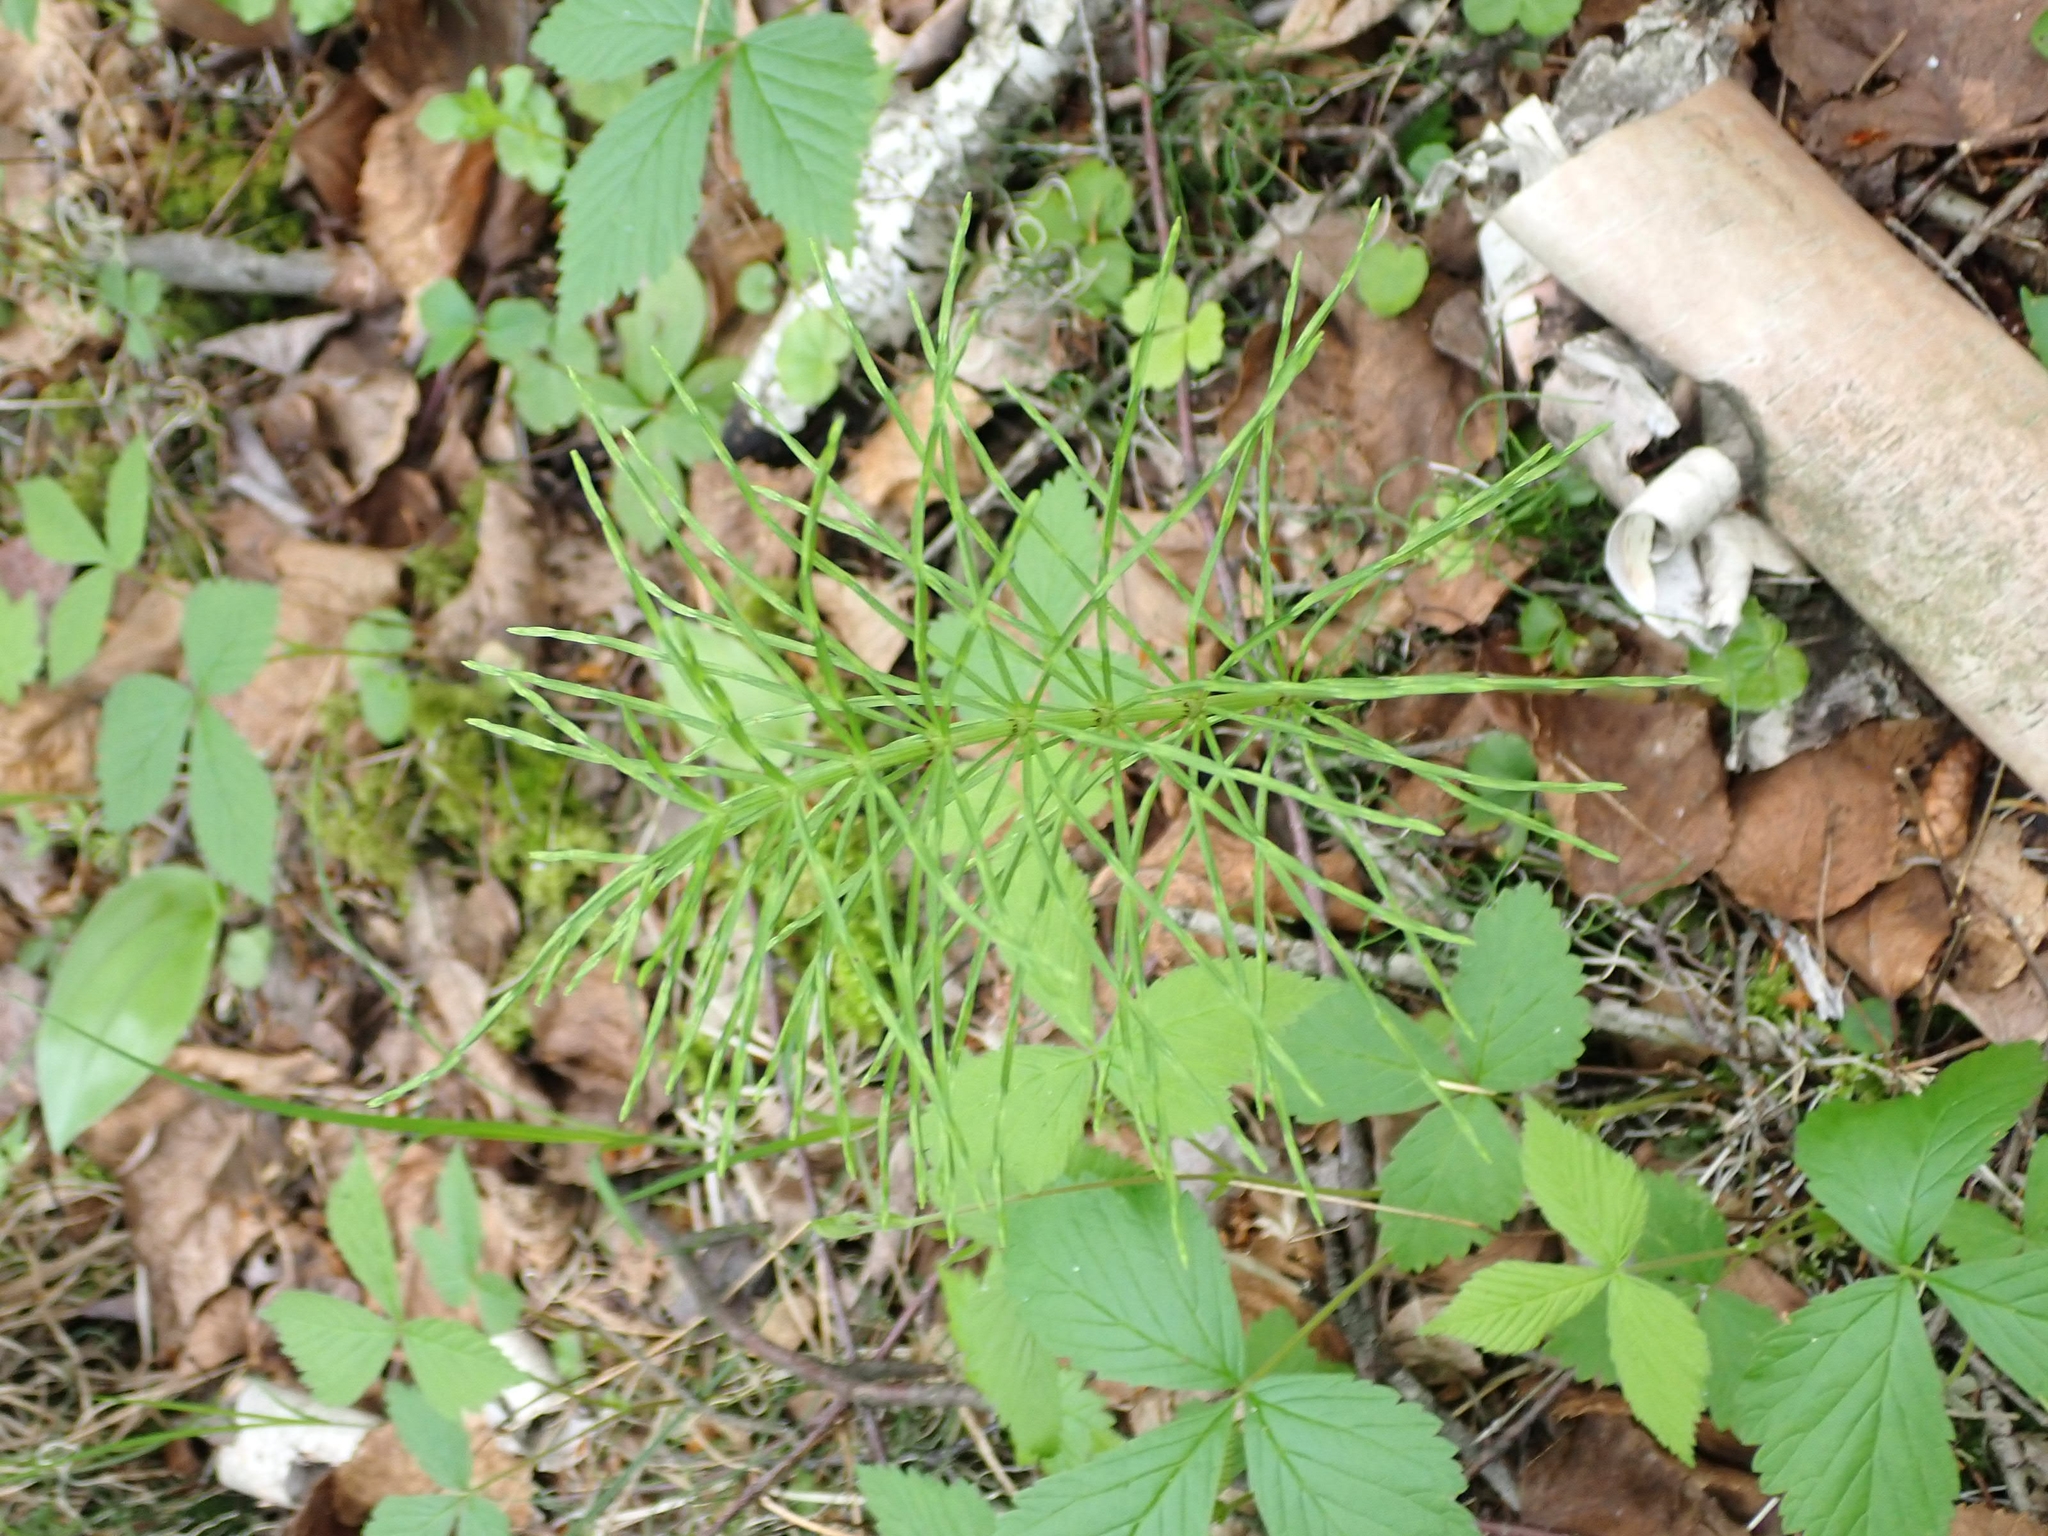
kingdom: Plantae
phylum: Tracheophyta
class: Polypodiopsida
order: Equisetales
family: Equisetaceae
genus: Equisetum
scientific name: Equisetum arvense
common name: Field horsetail
